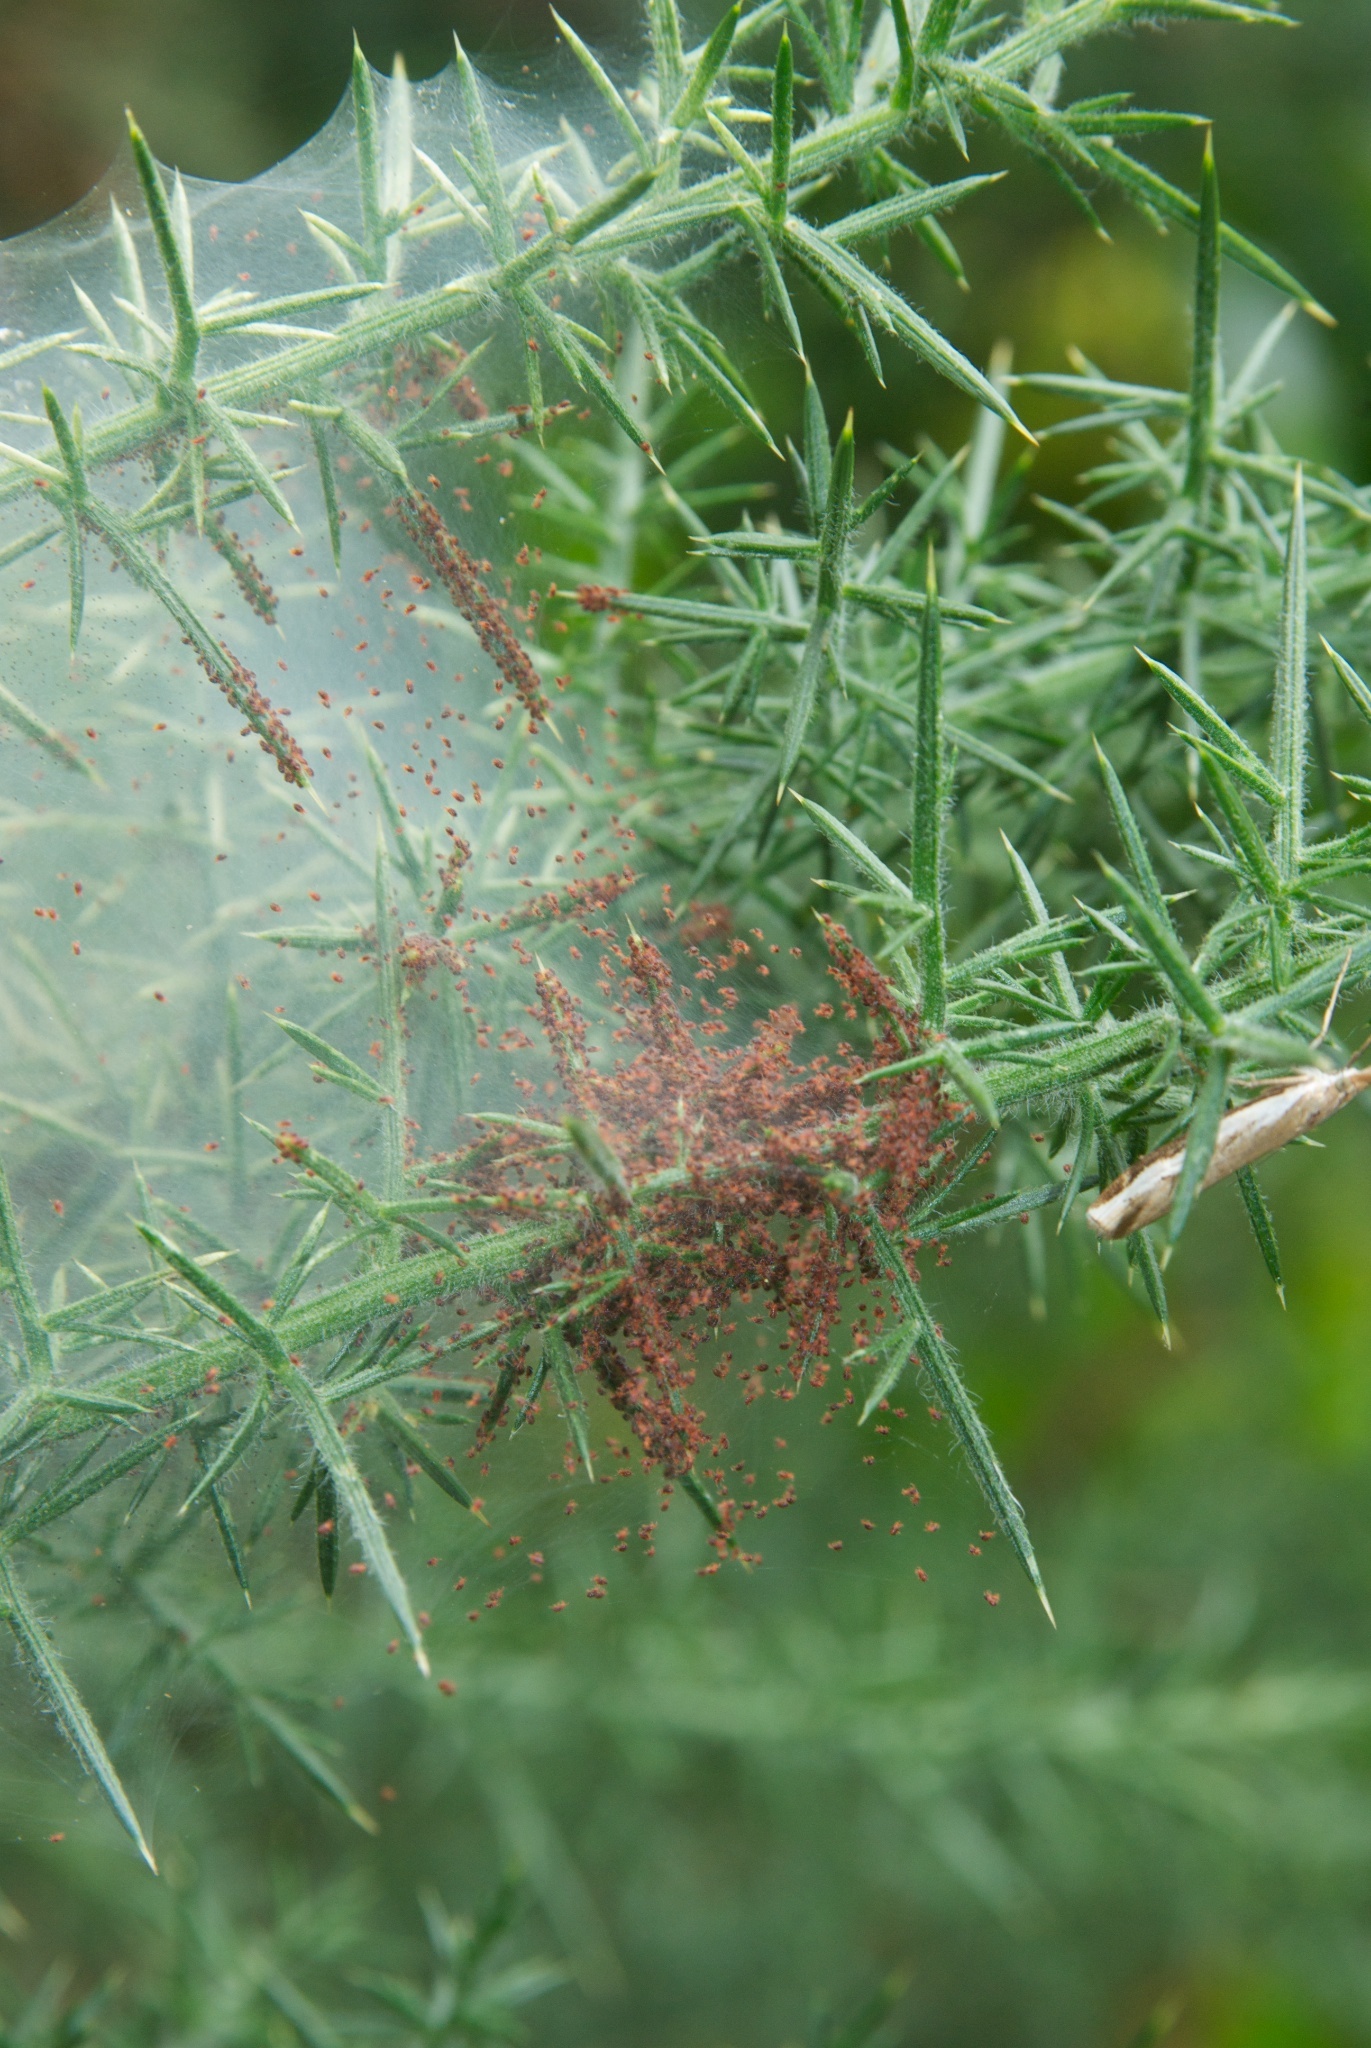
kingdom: Animalia
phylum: Arthropoda
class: Arachnida
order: Trombidiformes
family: Tetranychidae
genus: Tetranychus
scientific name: Tetranychus lintearius
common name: Gorse spider mite
